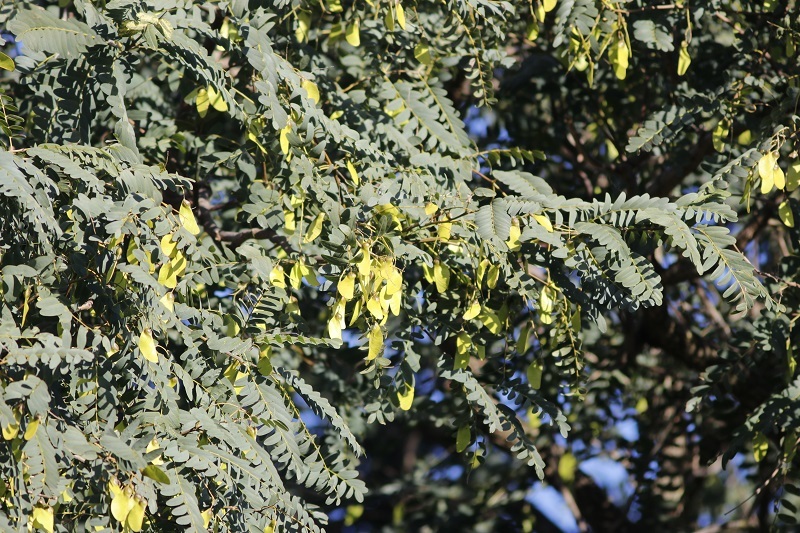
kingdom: Plantae
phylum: Tracheophyta
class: Magnoliopsida
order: Fabales
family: Fabaceae
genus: Tipuana
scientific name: Tipuana tipu
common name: Tiputree
